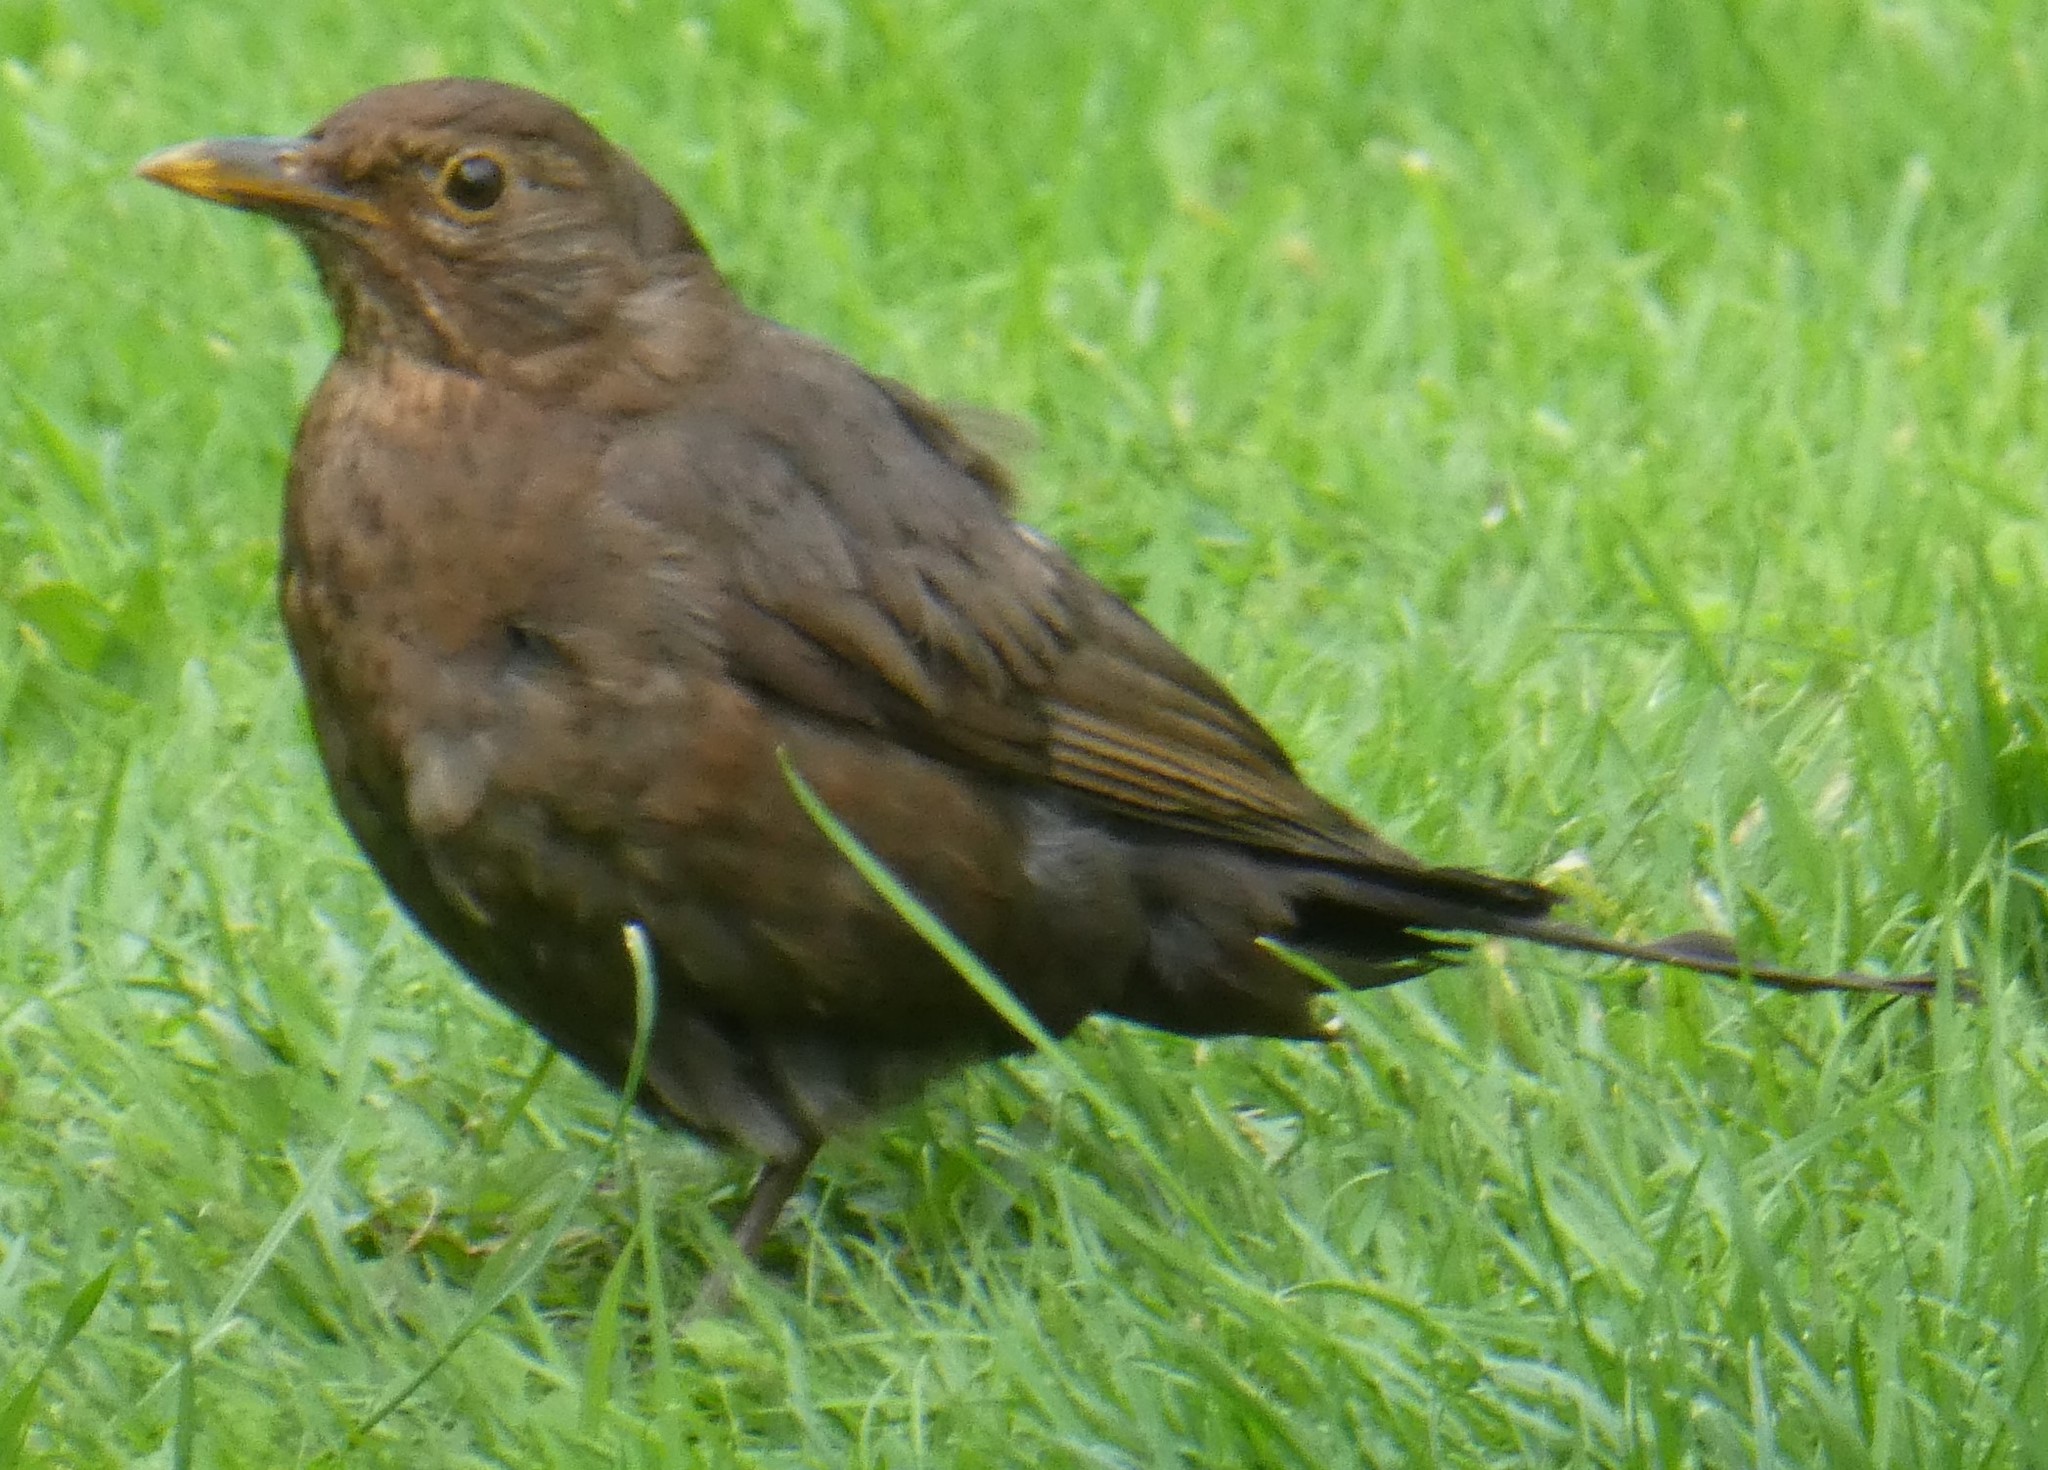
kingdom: Animalia
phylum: Chordata
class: Aves
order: Passeriformes
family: Turdidae
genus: Turdus
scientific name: Turdus merula
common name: Common blackbird
